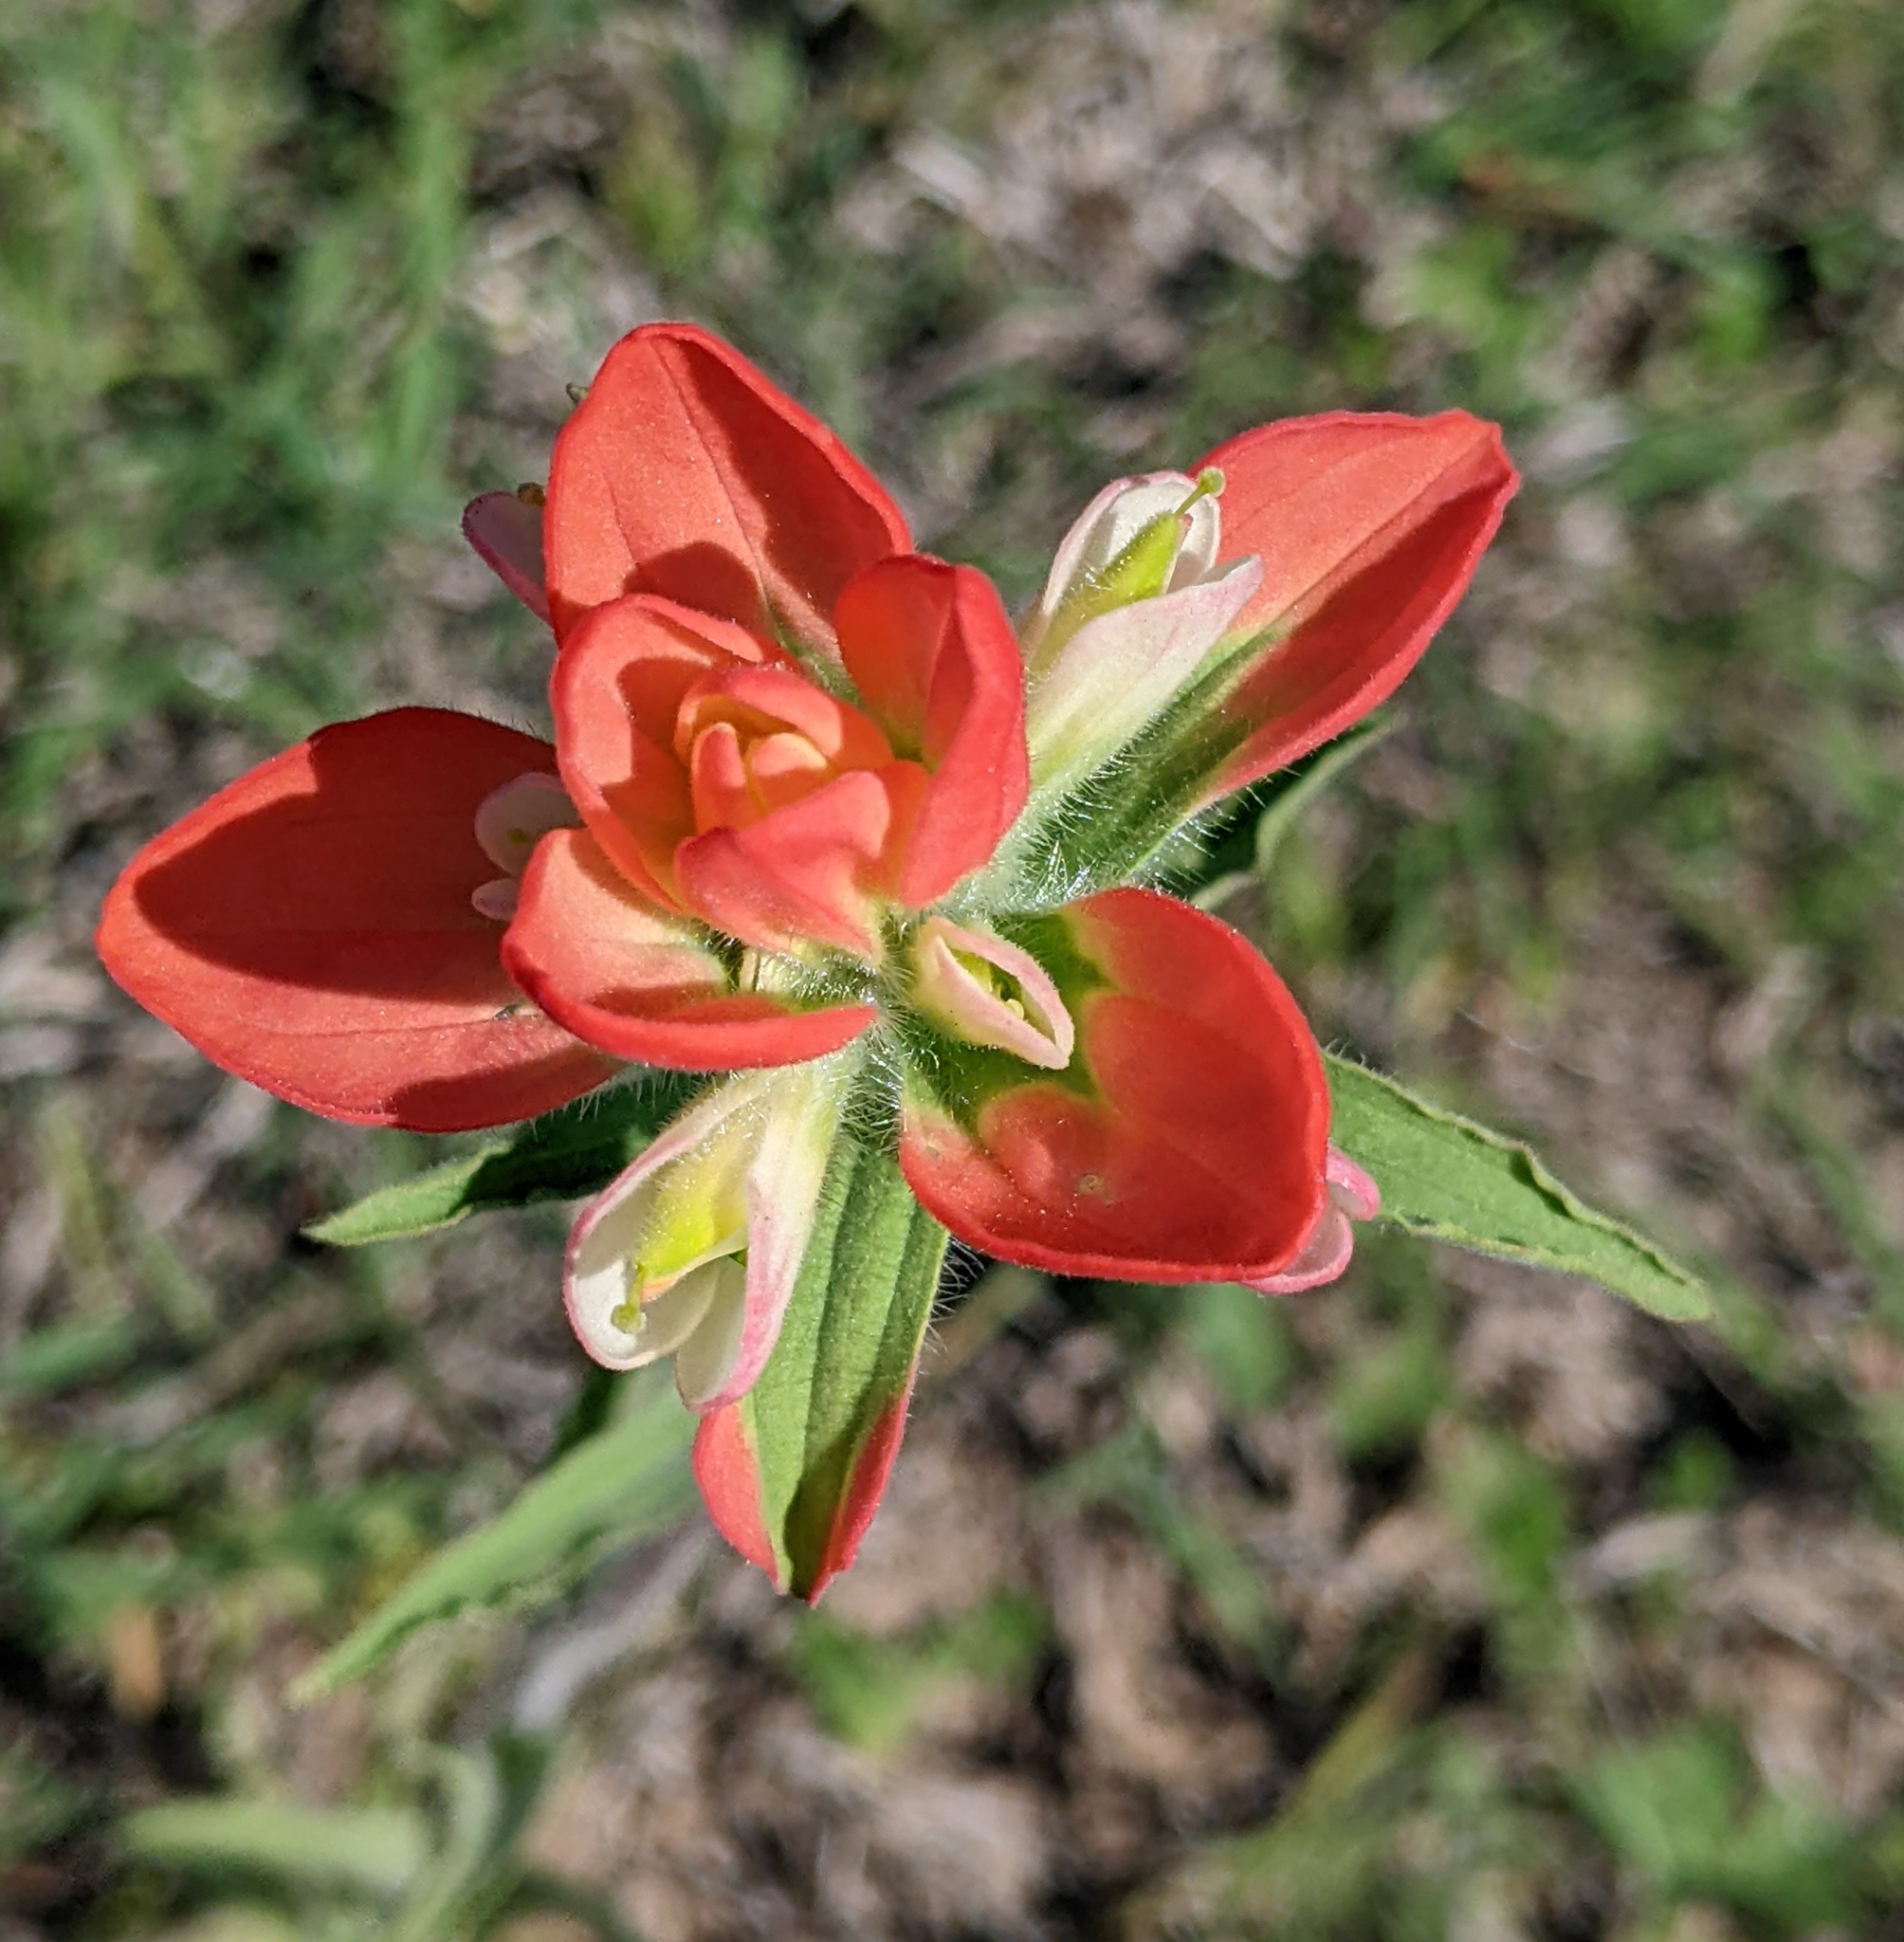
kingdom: Plantae
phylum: Tracheophyta
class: Magnoliopsida
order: Lamiales
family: Orobanchaceae
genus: Castilleja
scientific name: Castilleja indivisa
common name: Texas paintbrush
